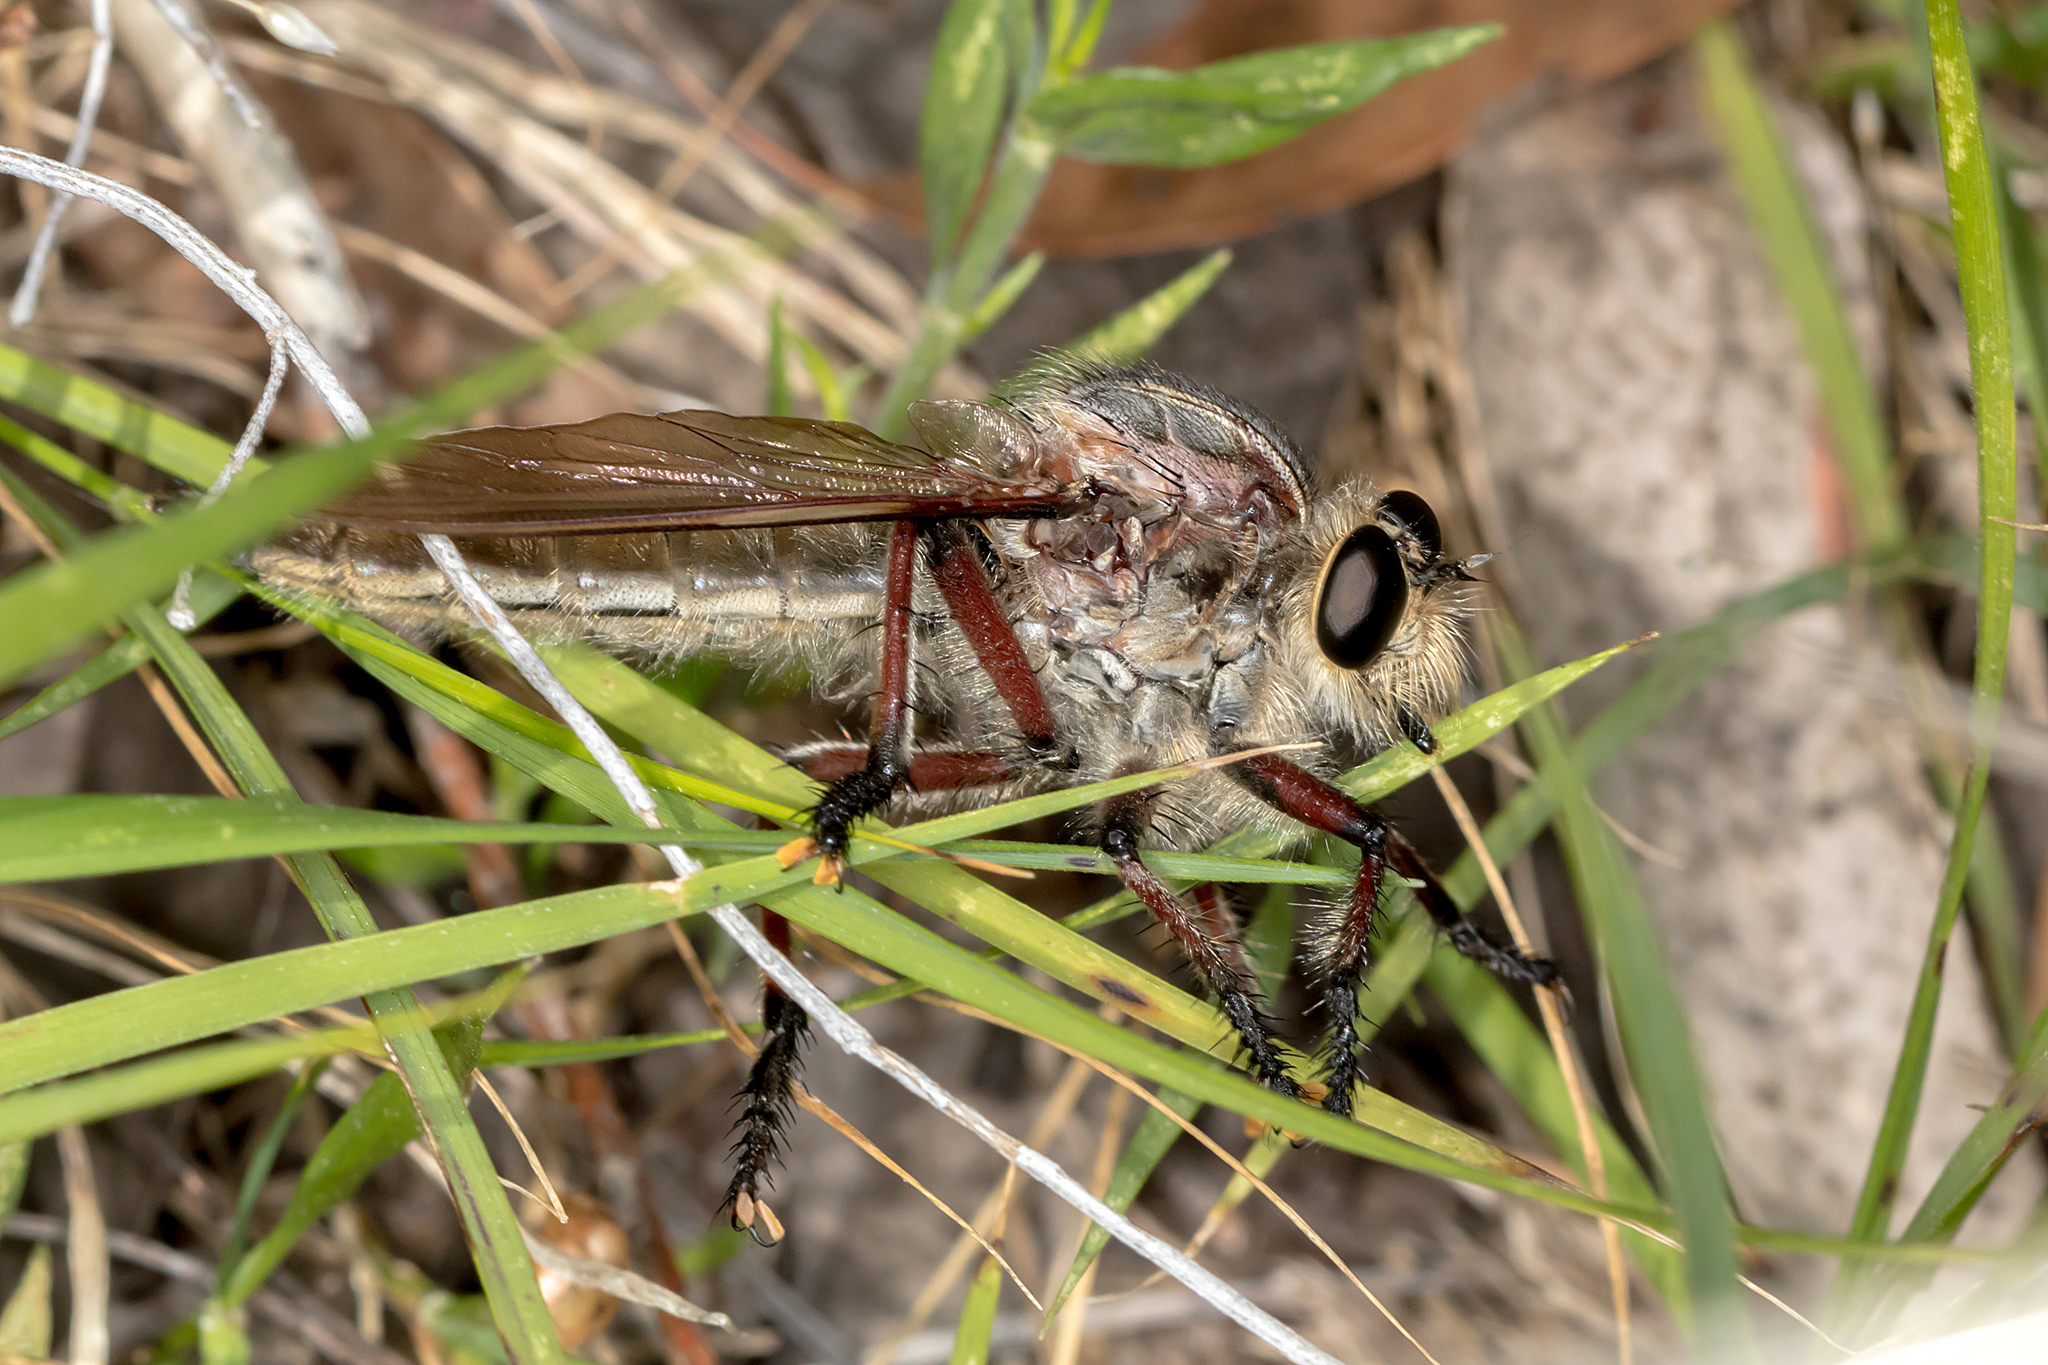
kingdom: Animalia
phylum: Arthropoda
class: Insecta
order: Diptera
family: Asilidae
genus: Neoaratus
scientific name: Neoaratus hercules
